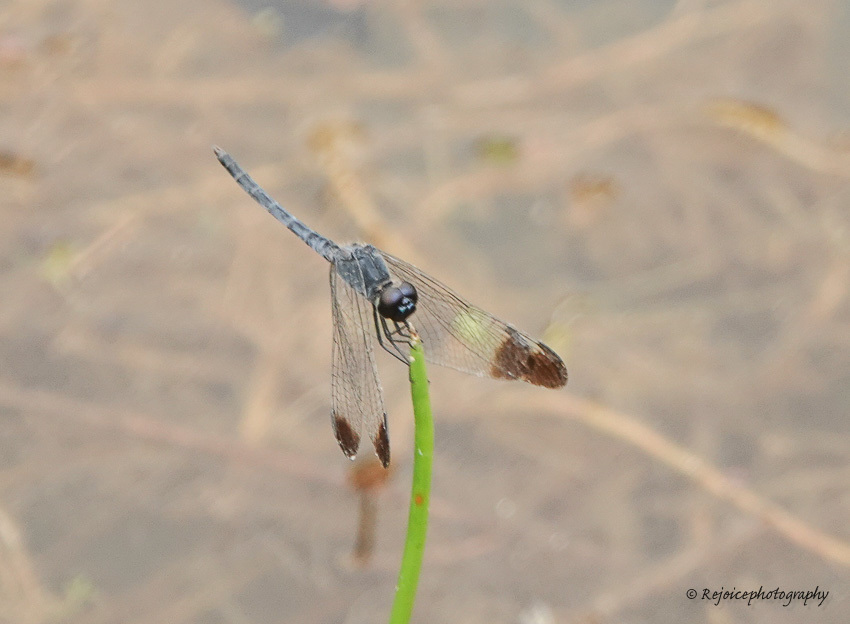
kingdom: Animalia
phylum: Arthropoda
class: Insecta
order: Odonata
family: Libellulidae
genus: Diplacodes
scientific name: Diplacodes nebulosa
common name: Black-tipped percher
